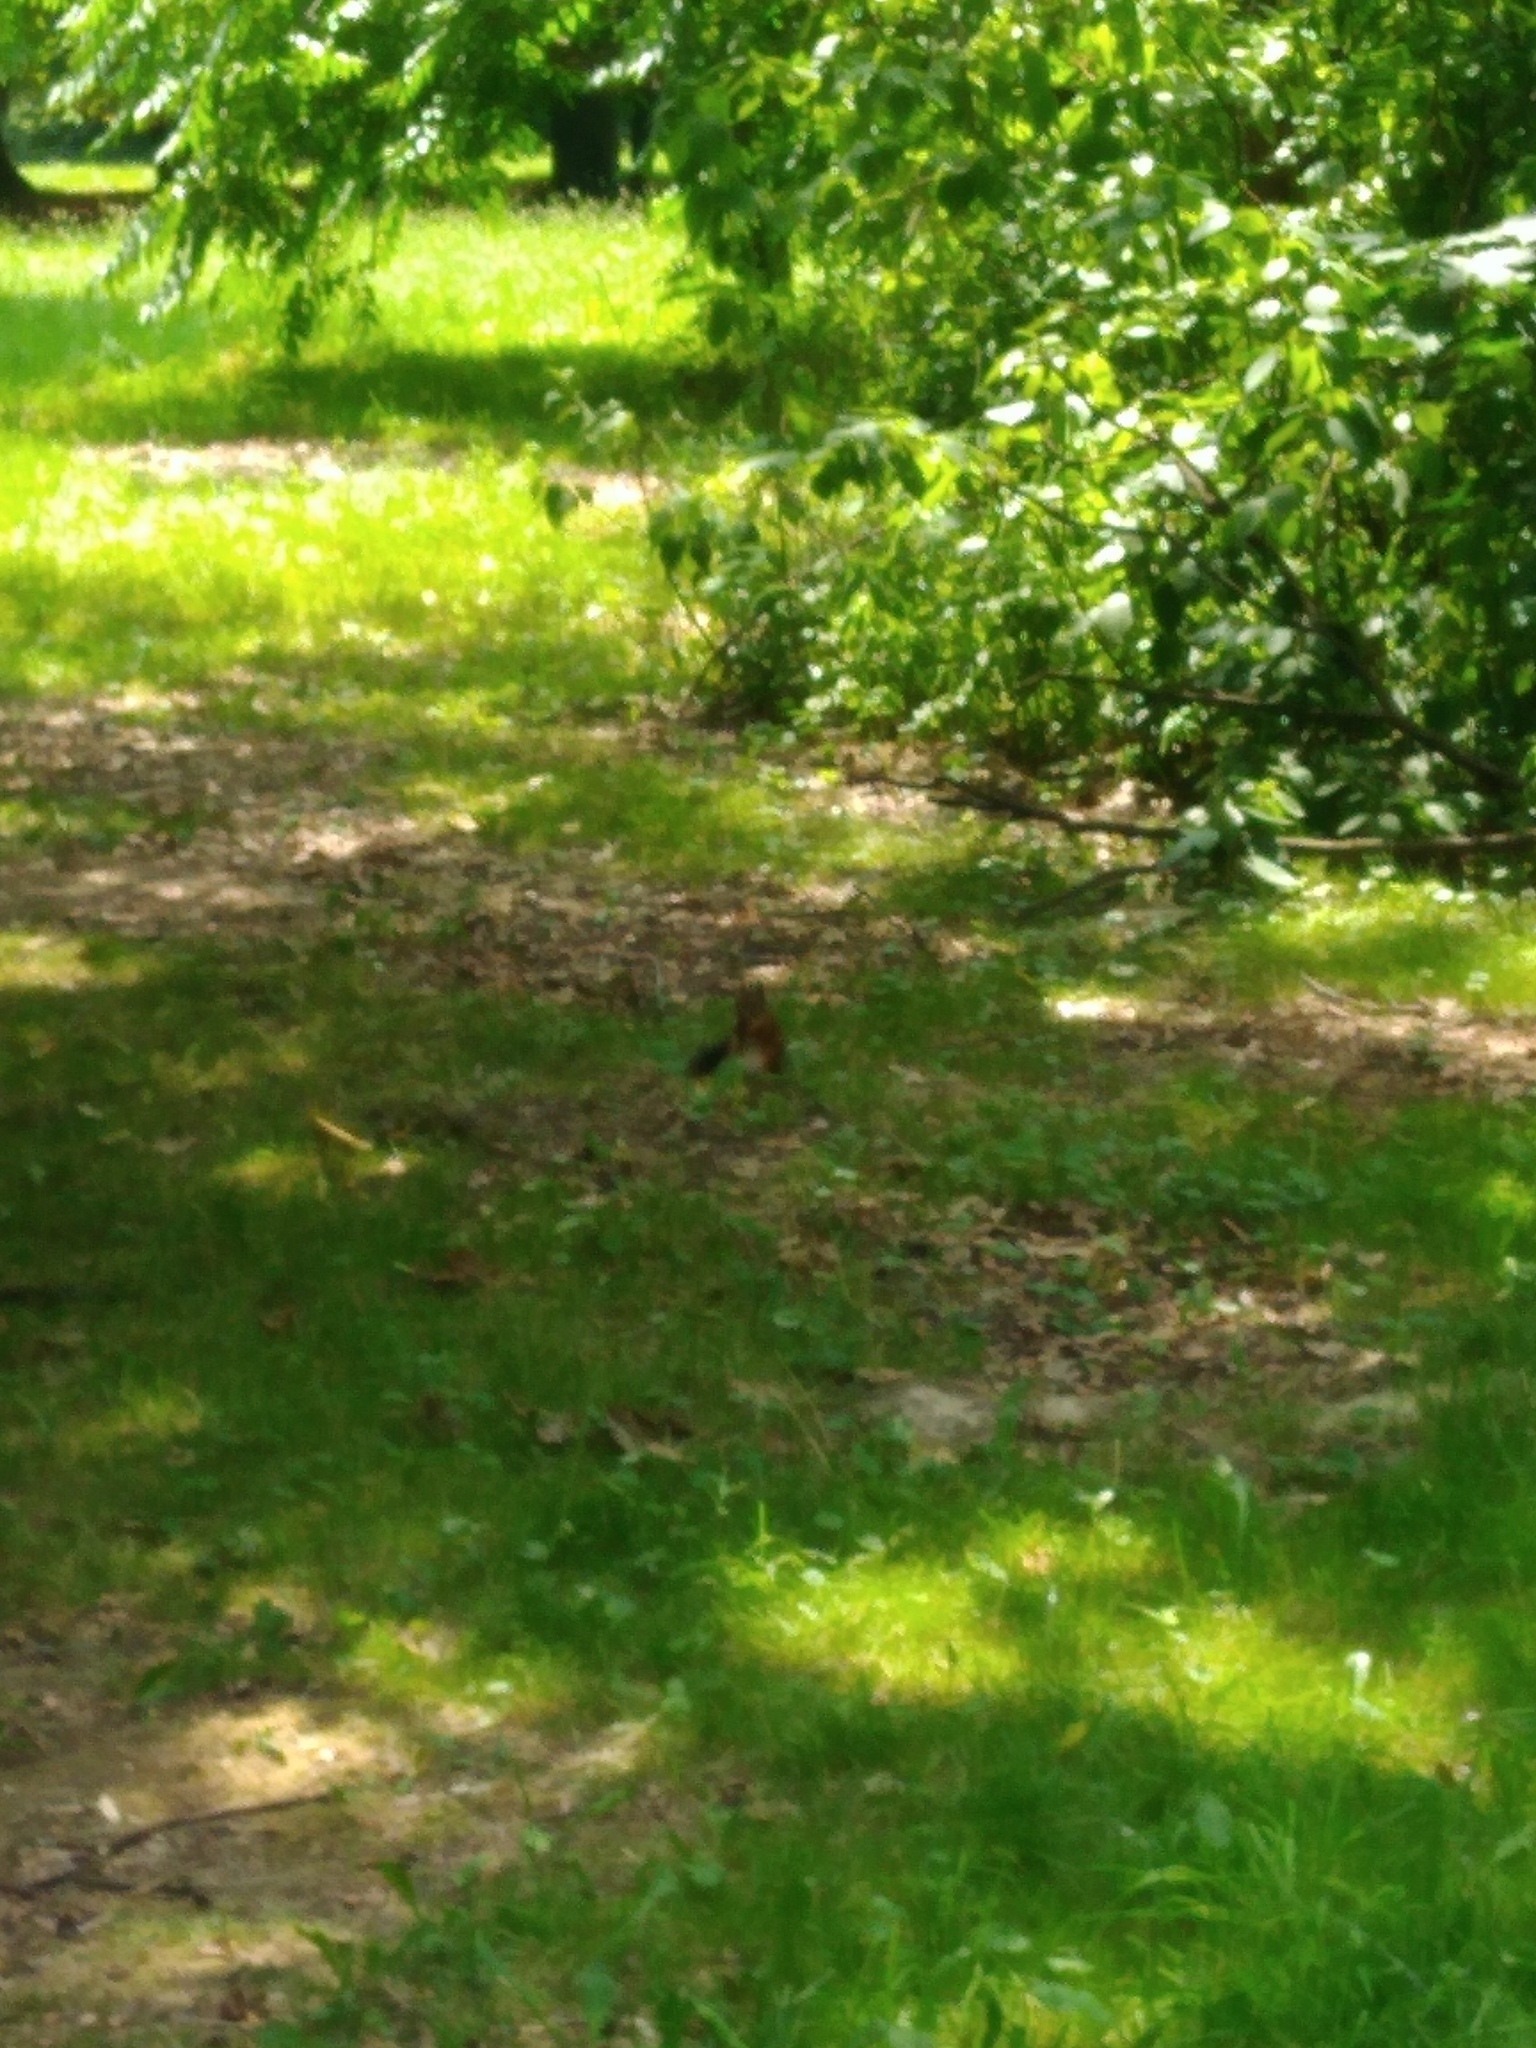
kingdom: Animalia
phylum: Chordata
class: Mammalia
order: Rodentia
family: Sciuridae
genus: Sciurus
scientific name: Sciurus vulgaris
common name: Eurasian red squirrel
